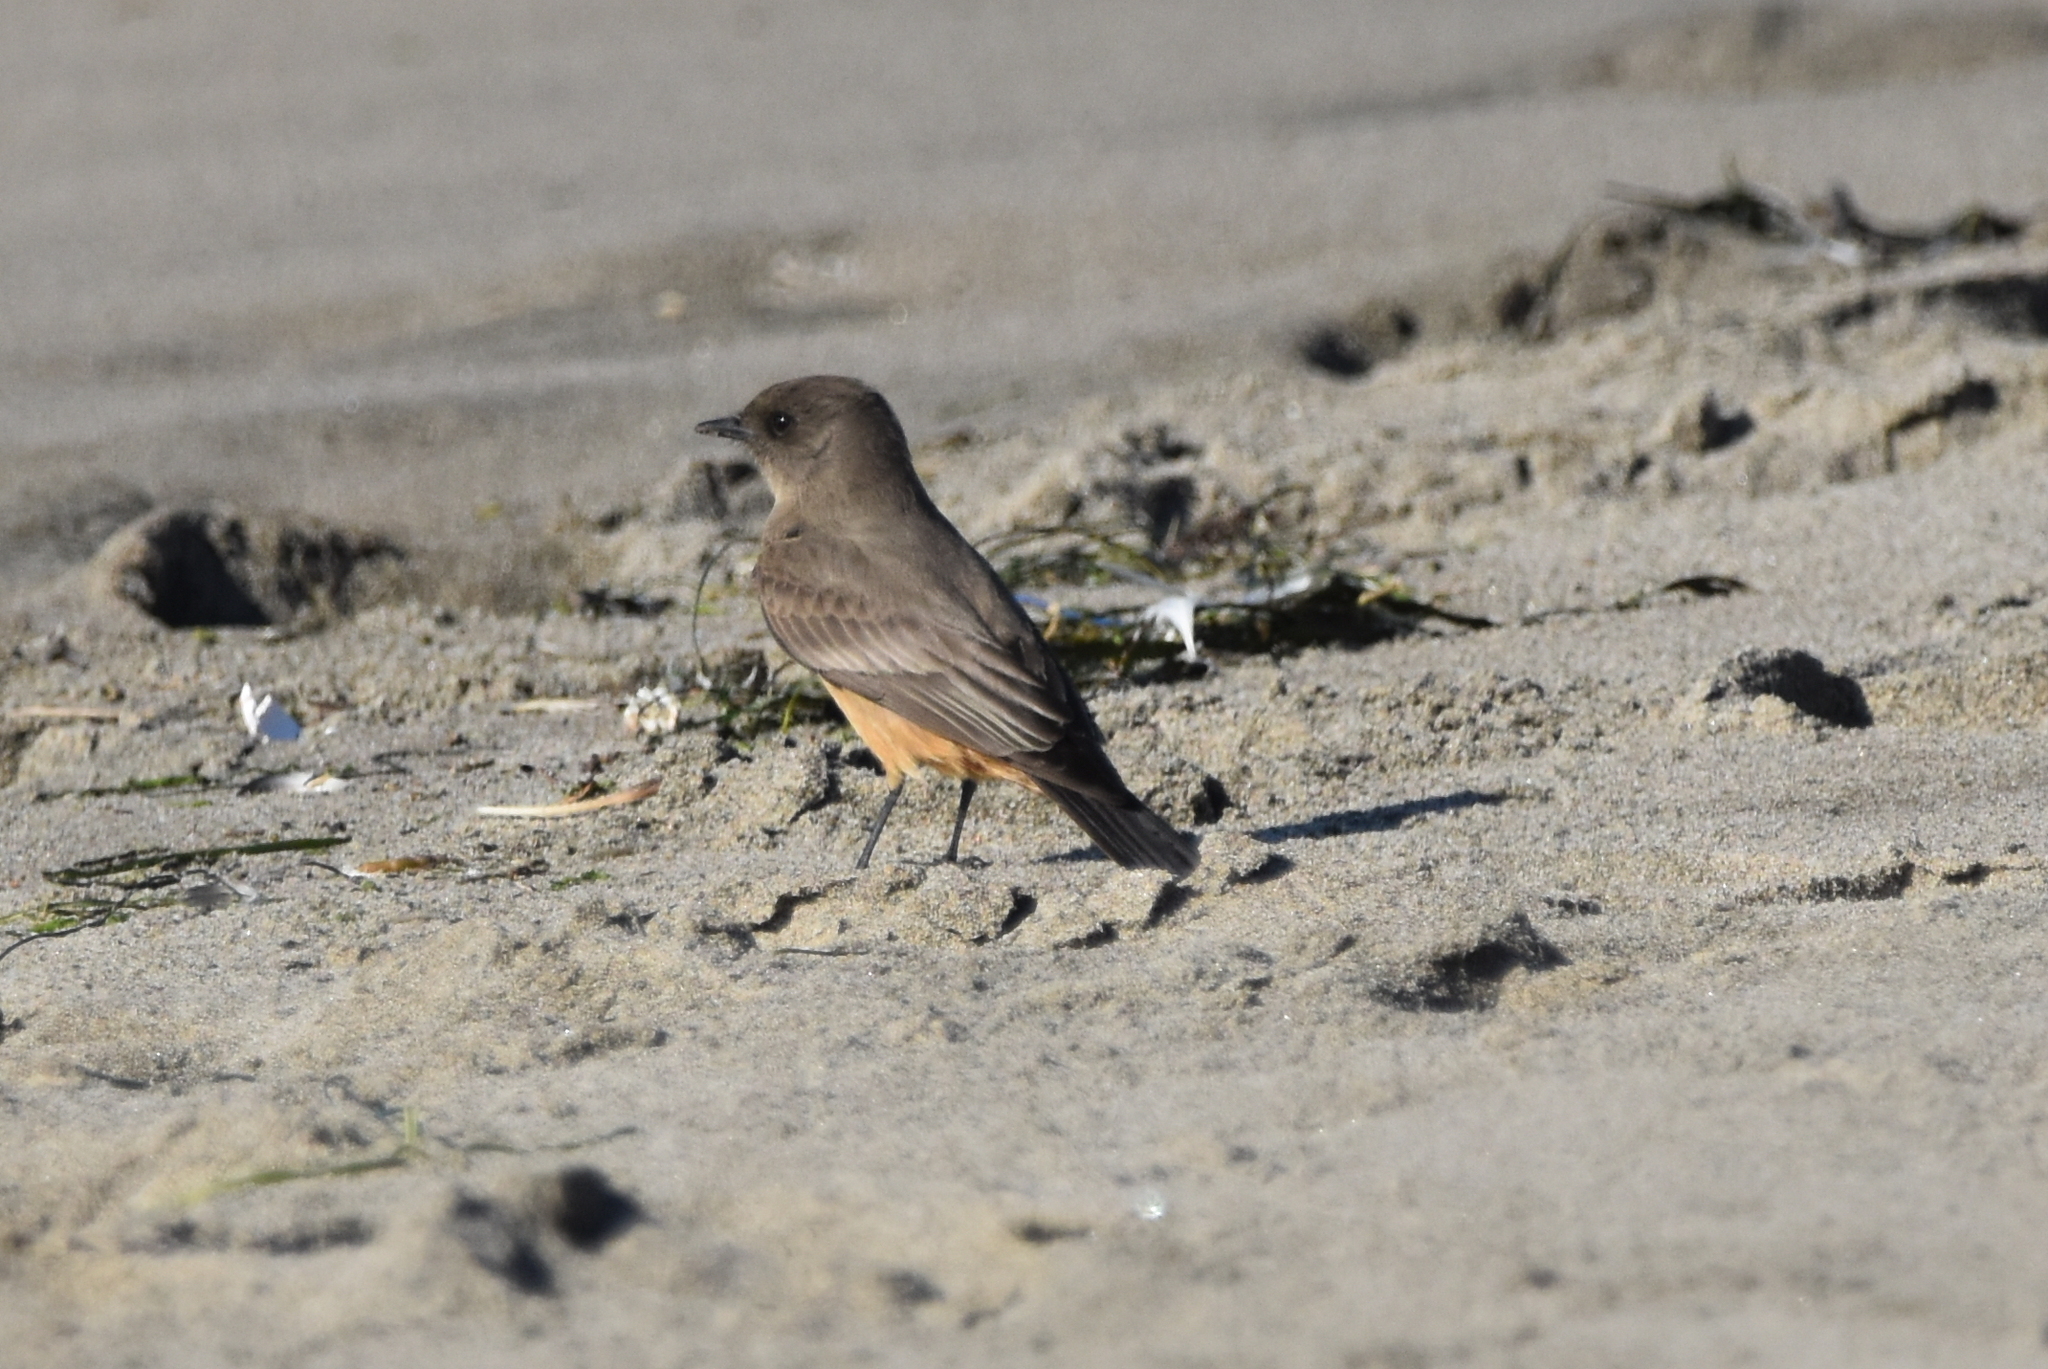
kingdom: Animalia
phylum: Chordata
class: Aves
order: Passeriformes
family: Tyrannidae
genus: Sayornis
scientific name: Sayornis saya
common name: Say's phoebe
